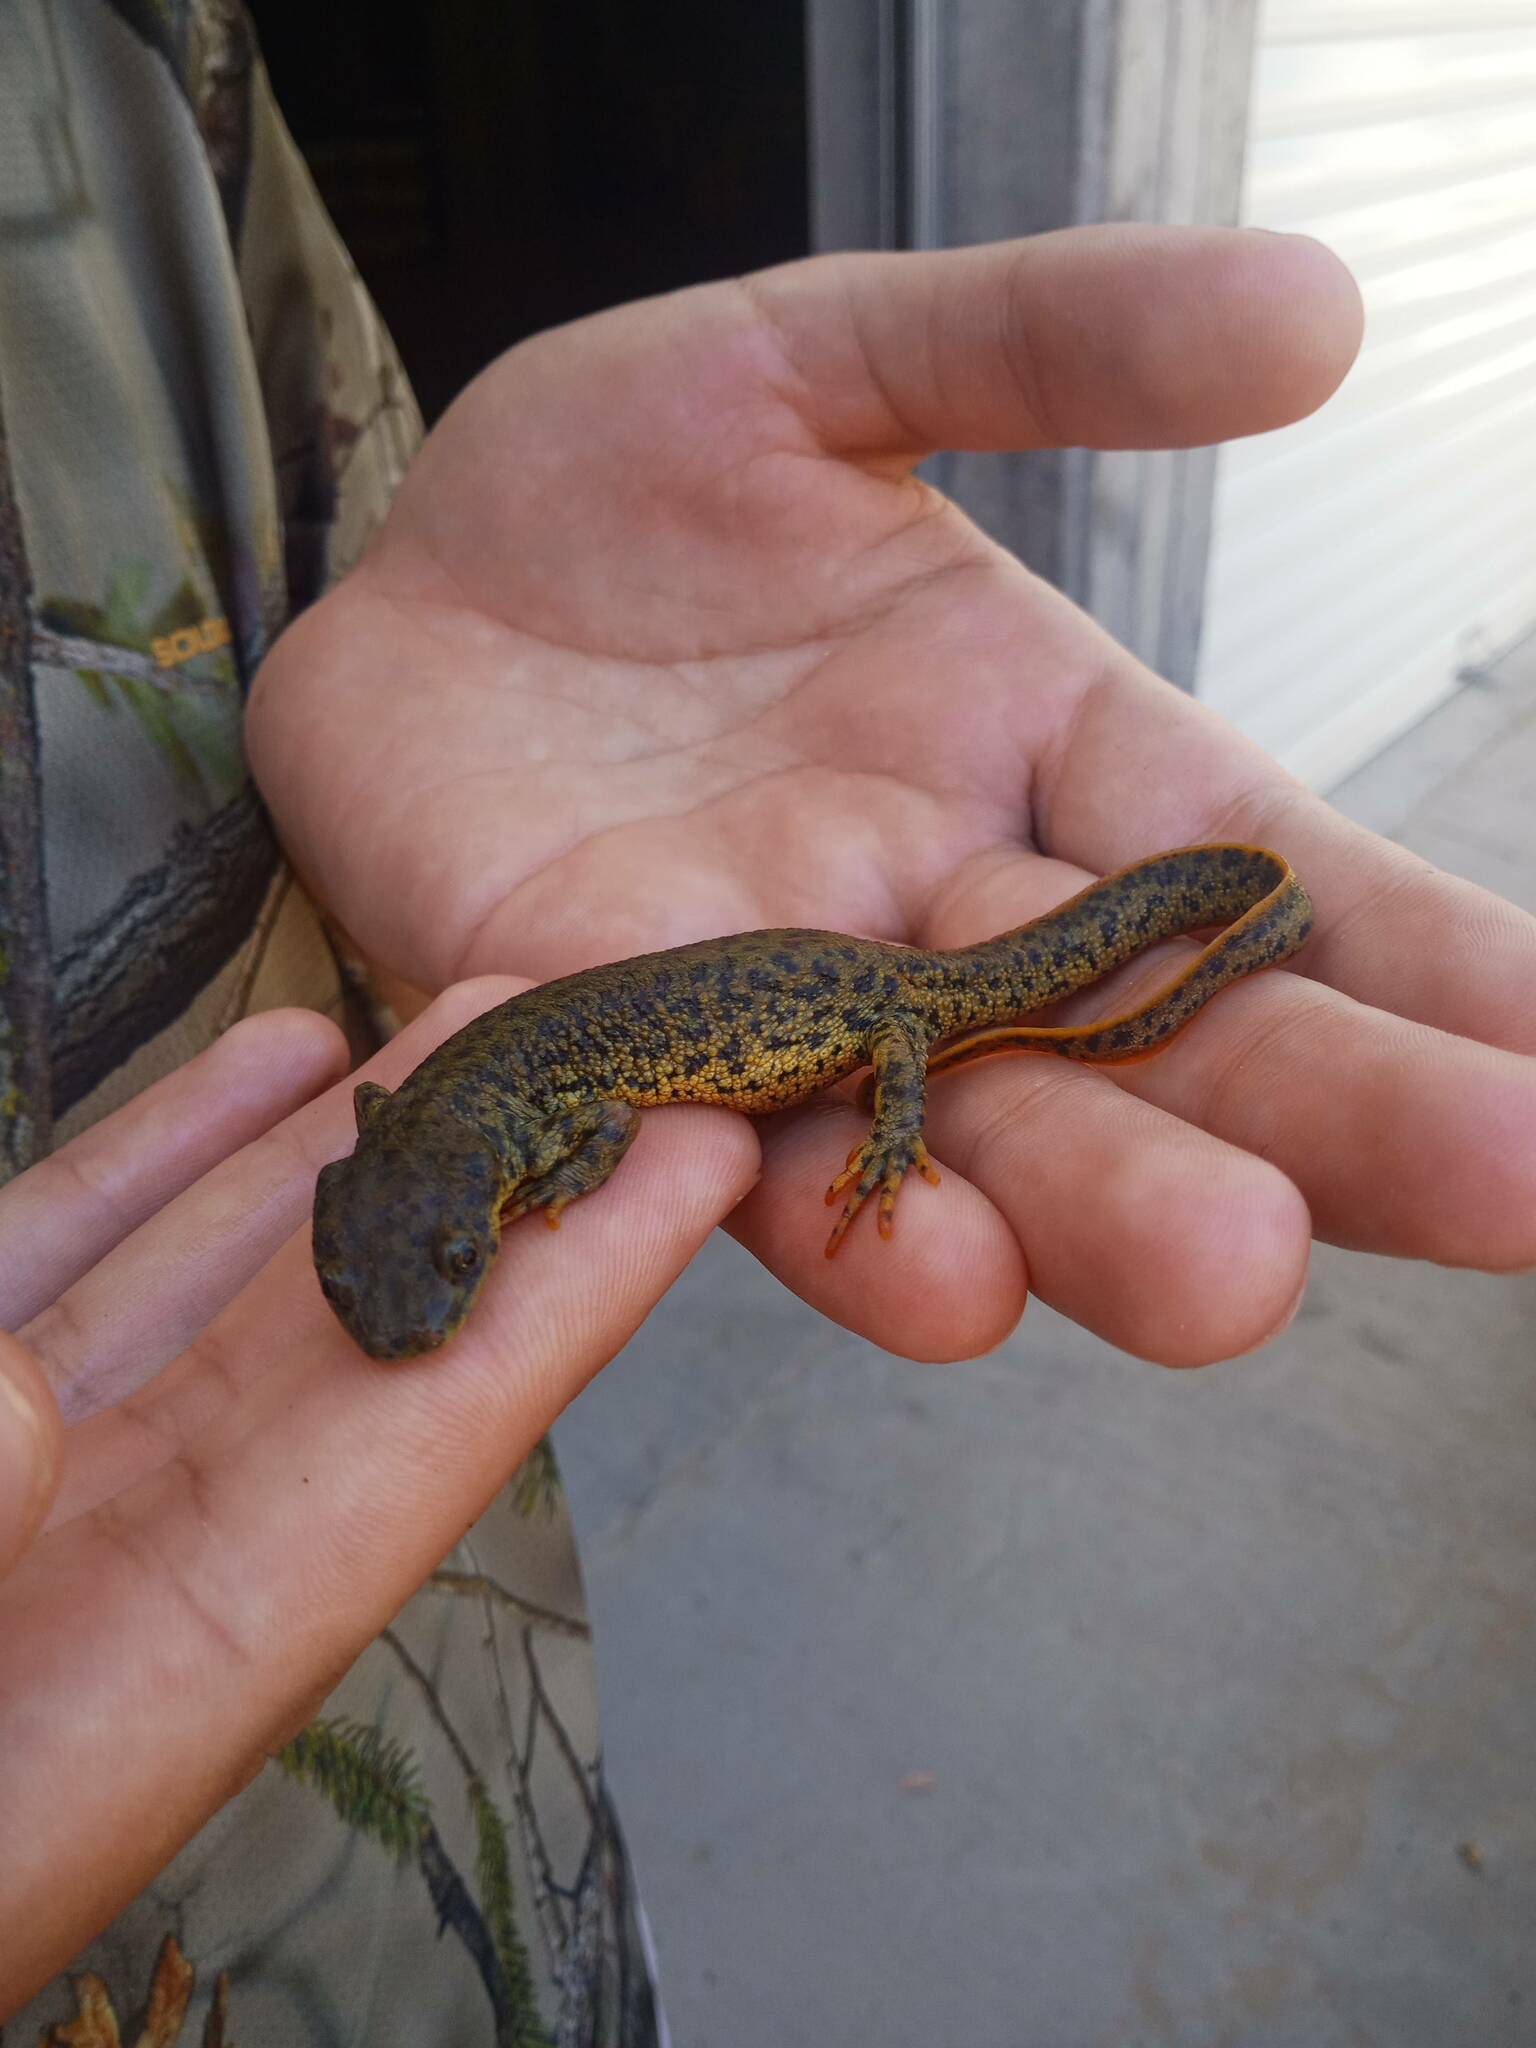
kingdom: Animalia
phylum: Chordata
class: Amphibia
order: Caudata
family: Salamandridae
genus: Pleurodeles
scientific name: Pleurodeles nebulosus
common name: Algerian ribbed newt
